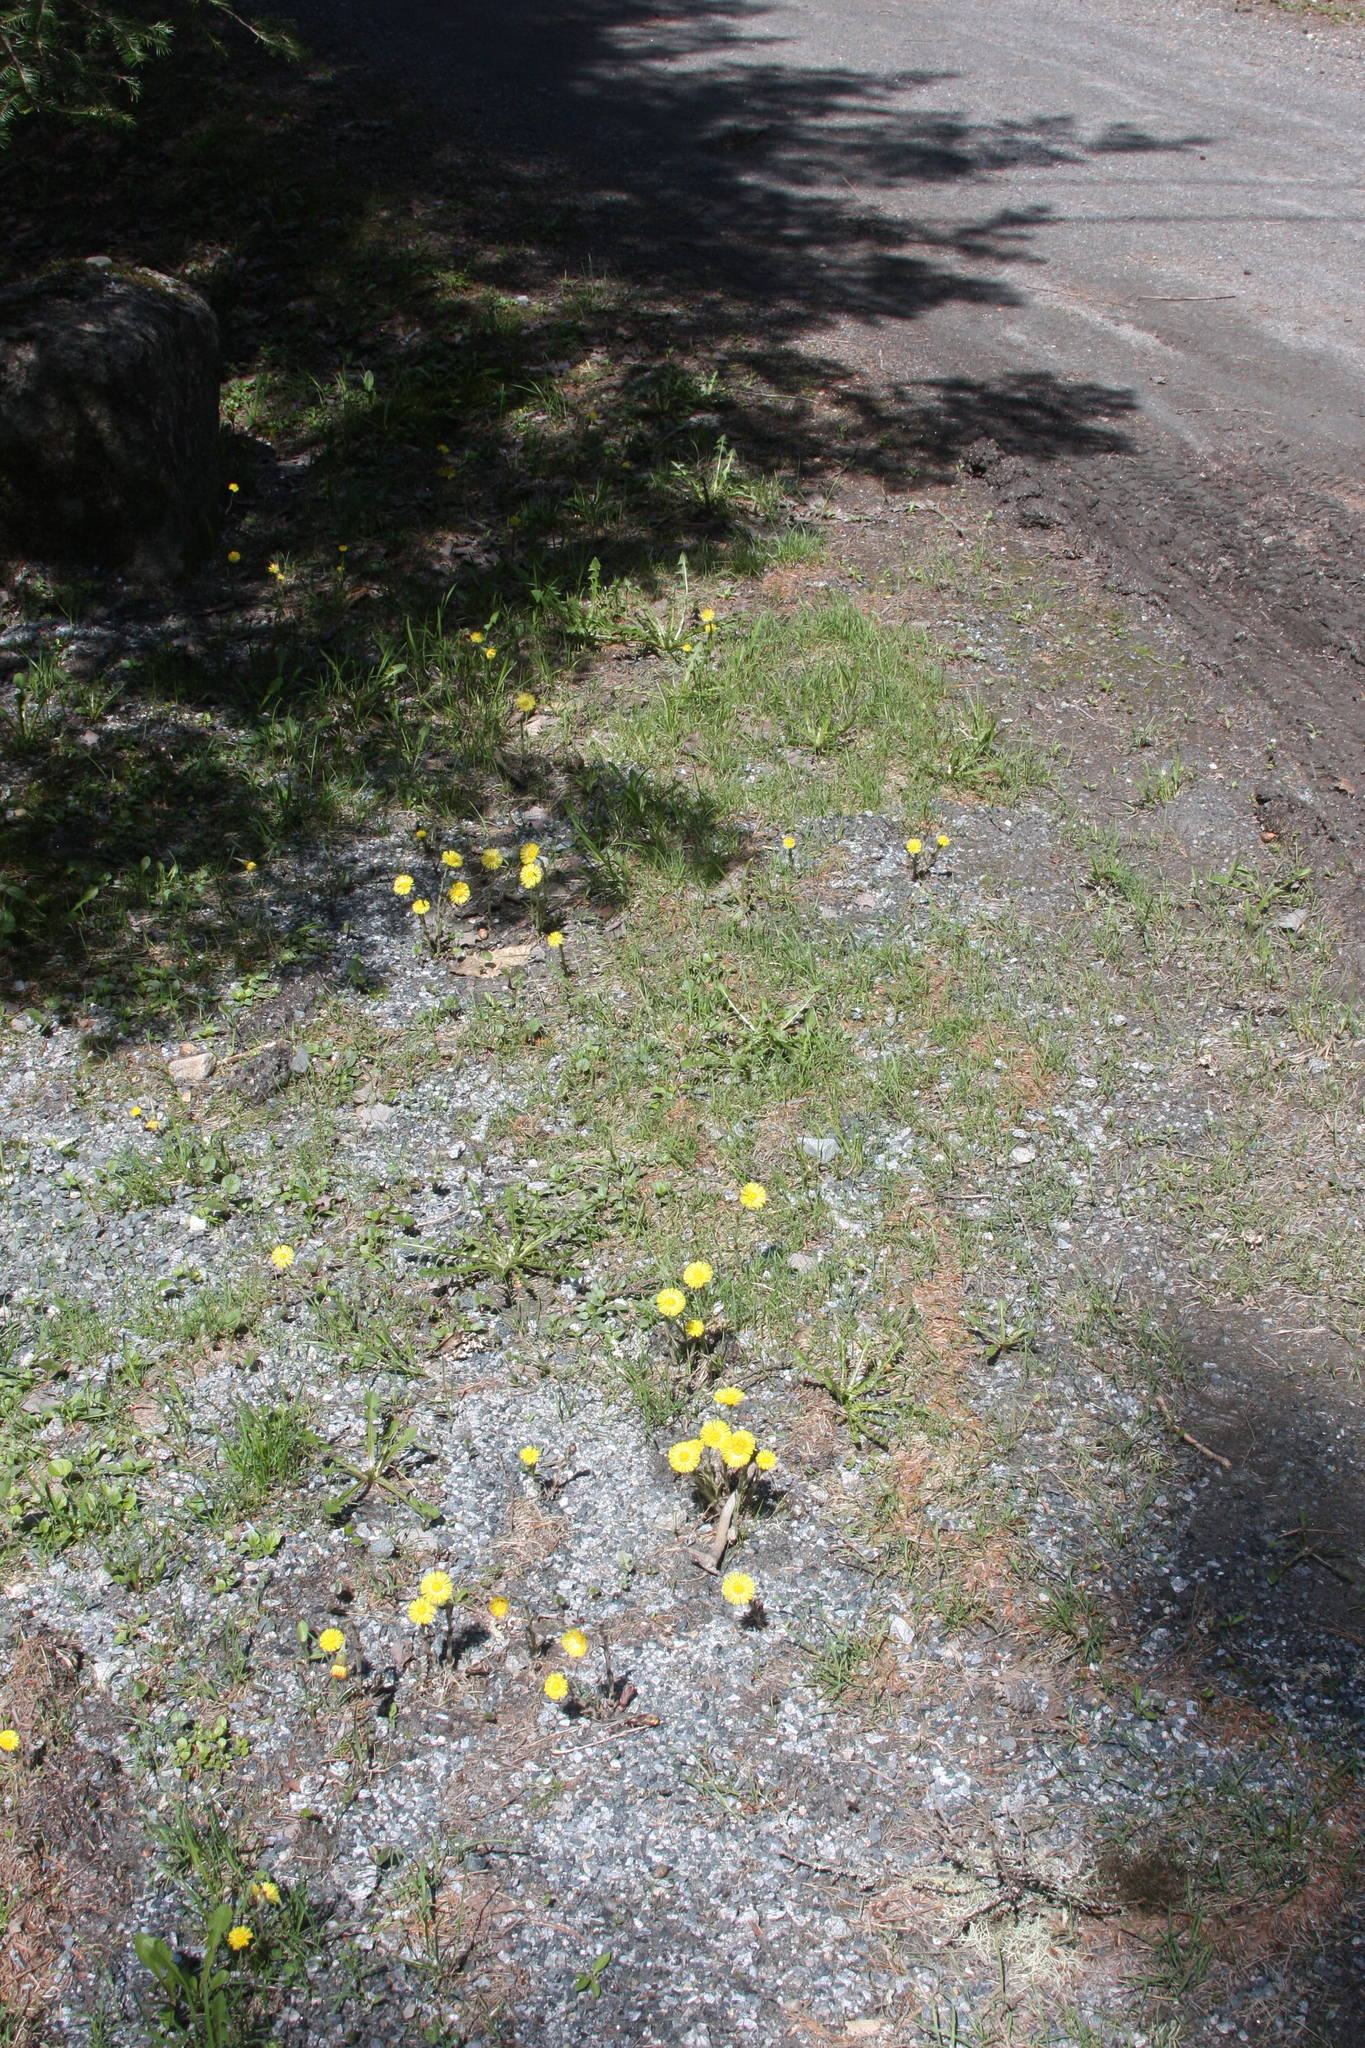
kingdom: Plantae
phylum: Tracheophyta
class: Magnoliopsida
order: Asterales
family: Asteraceae
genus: Tussilago
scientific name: Tussilago farfara
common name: Coltsfoot
